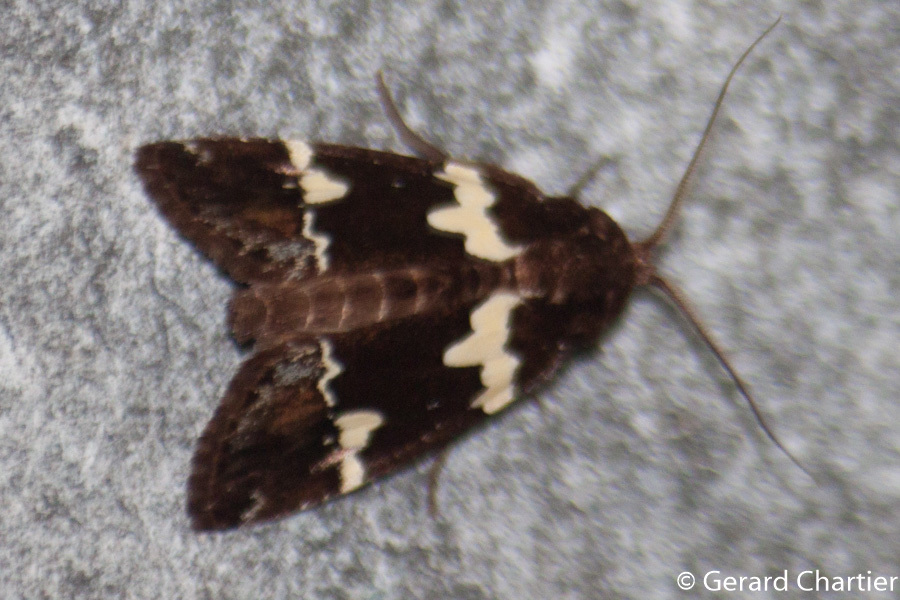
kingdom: Animalia
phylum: Arthropoda
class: Insecta
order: Lepidoptera
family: Noctuidae
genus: Borbotana
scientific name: Borbotana nivifascia
